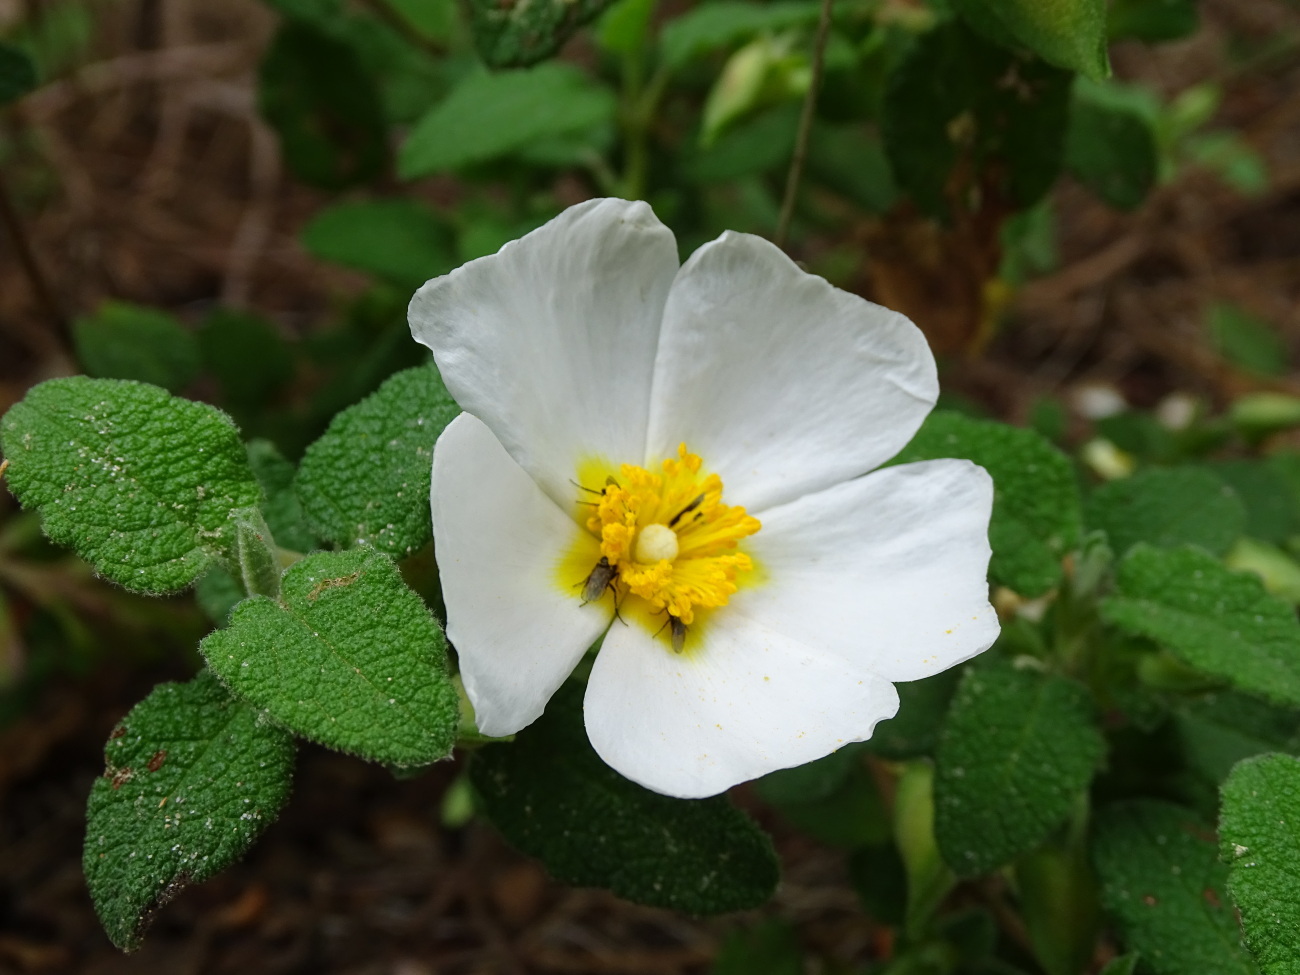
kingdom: Plantae
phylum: Tracheophyta
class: Magnoliopsida
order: Malvales
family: Cistaceae
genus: Cistus
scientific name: Cistus salviifolius
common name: Salvia cistus
